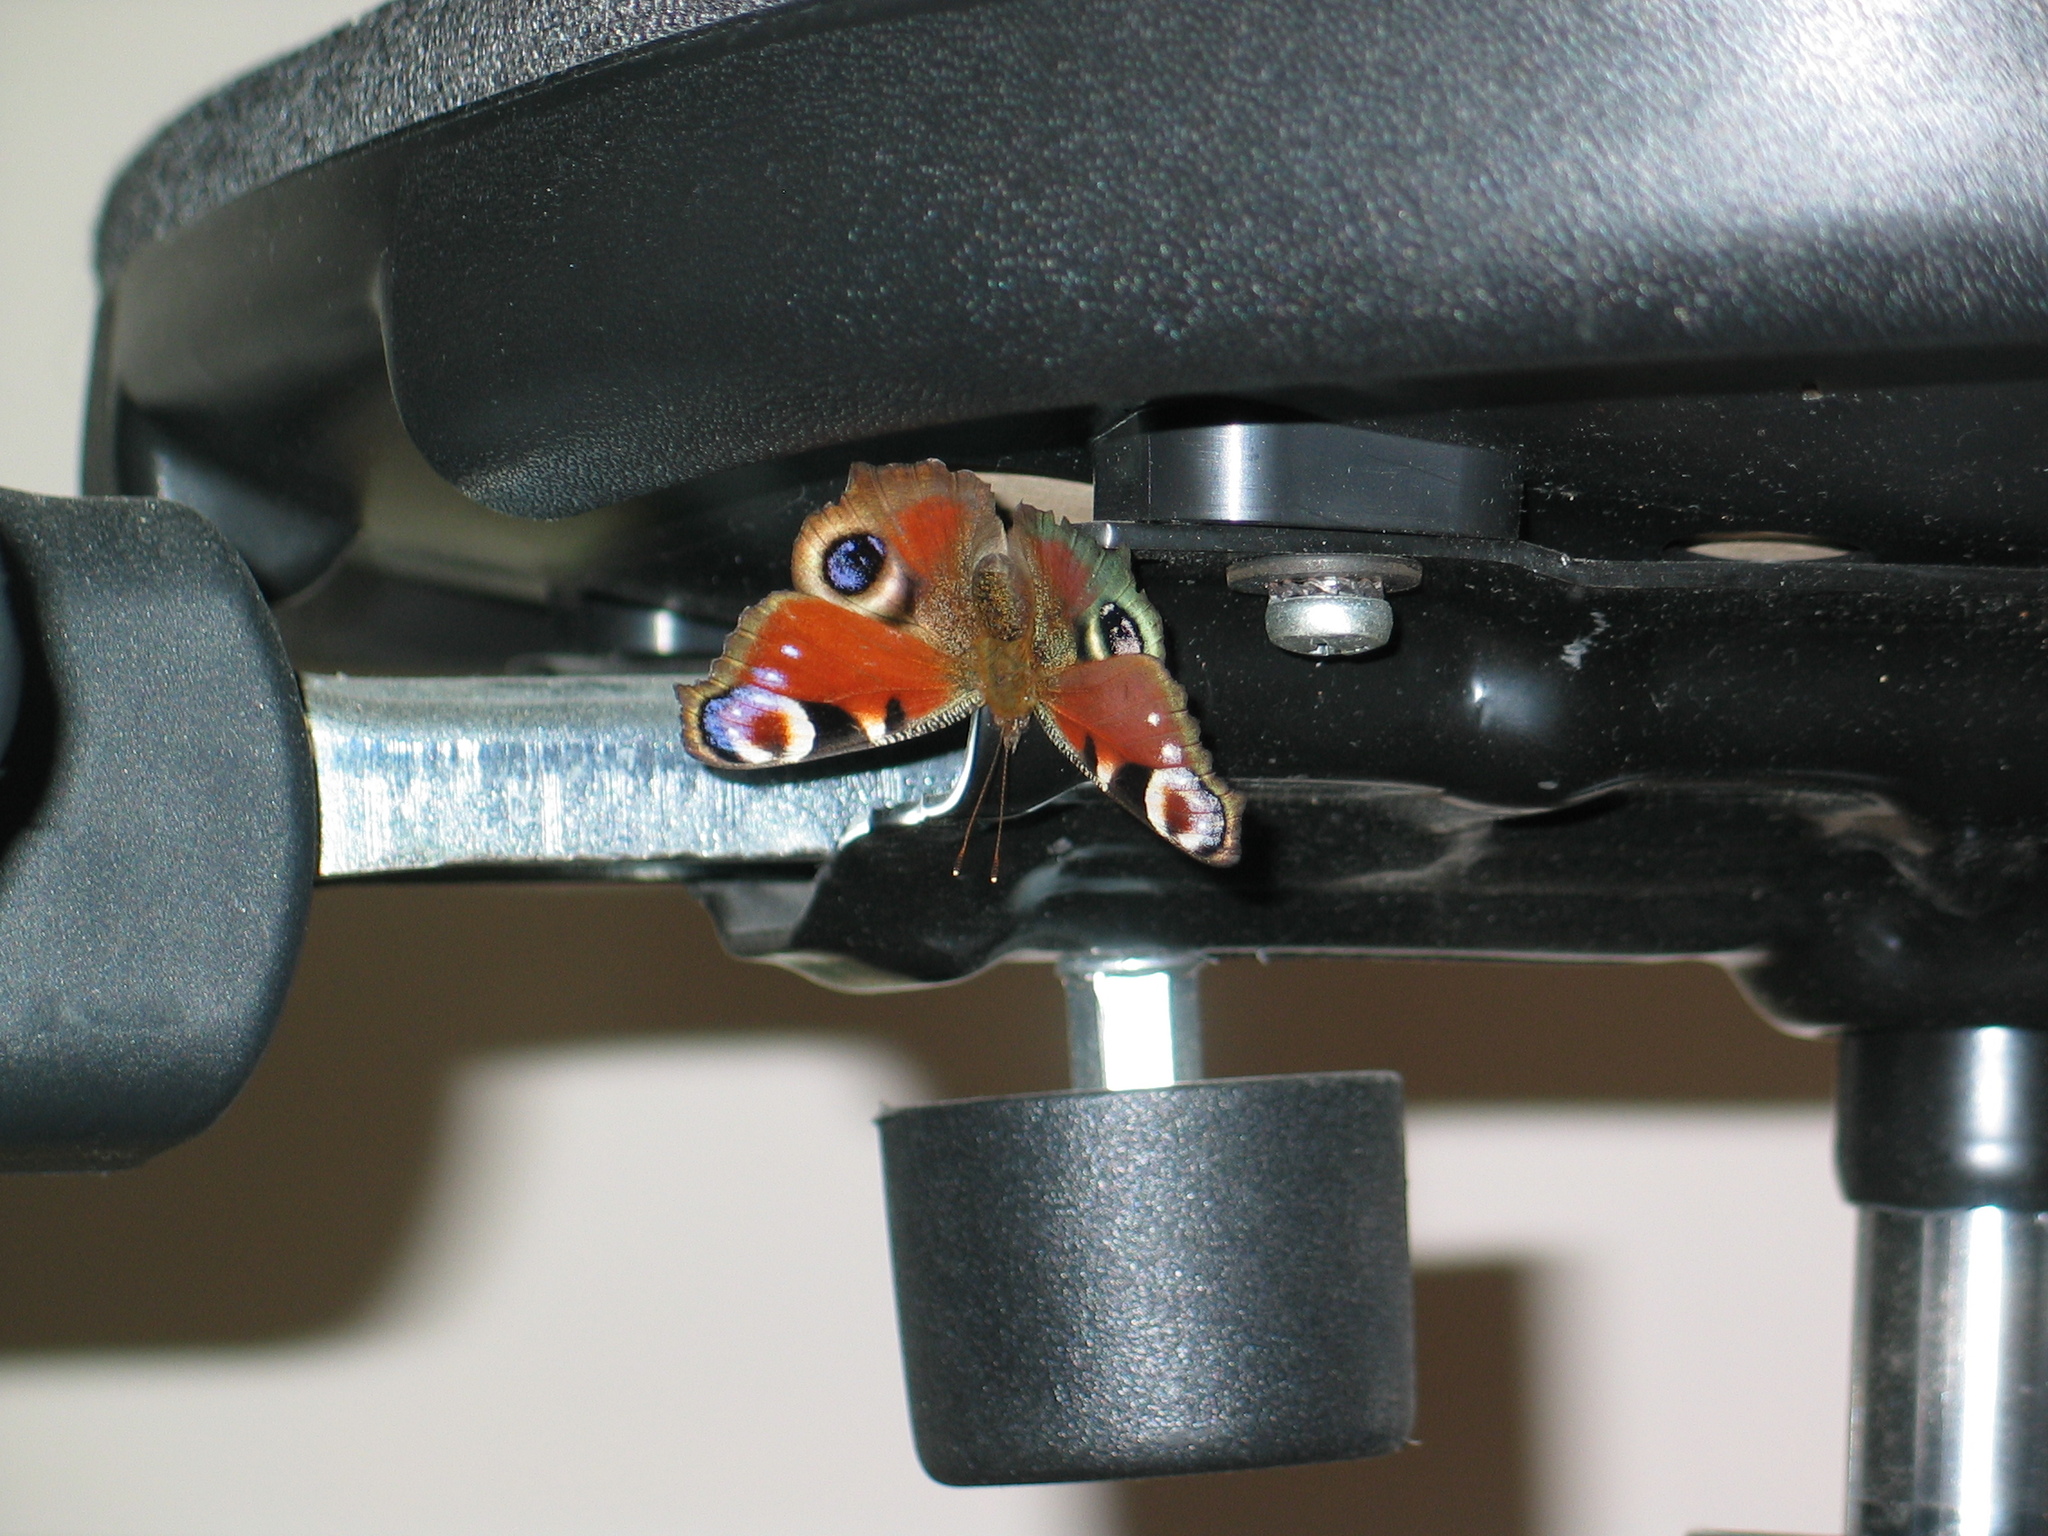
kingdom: Animalia
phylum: Arthropoda
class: Insecta
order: Lepidoptera
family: Nymphalidae
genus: Aglais
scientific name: Aglais io
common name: Peacock
